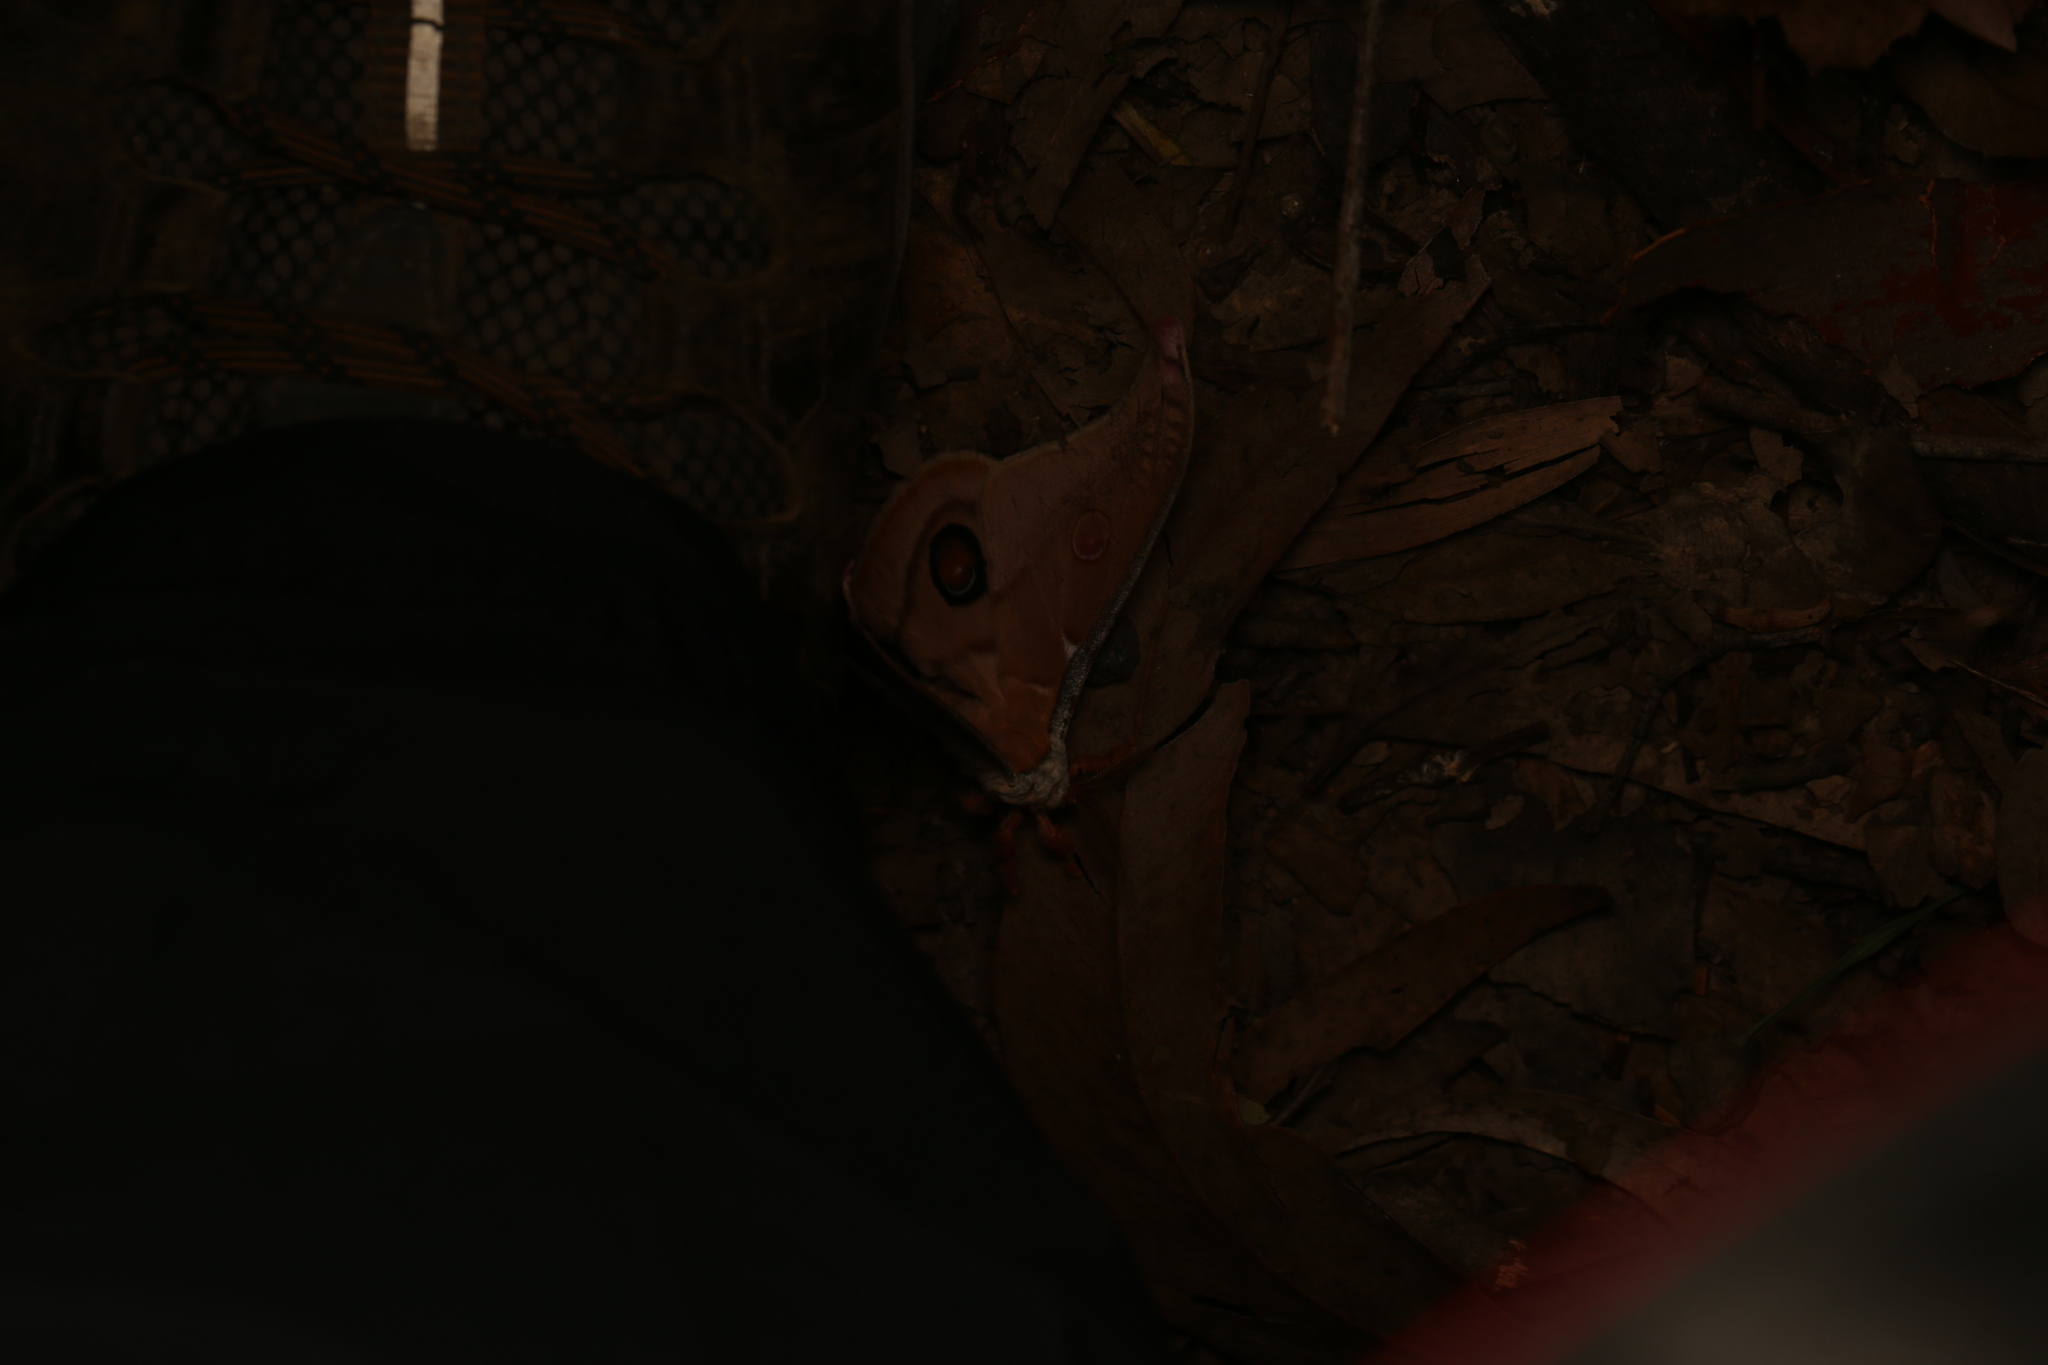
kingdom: Animalia
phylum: Arthropoda
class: Insecta
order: Lepidoptera
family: Saturniidae
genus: Opodiphthera
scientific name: Opodiphthera
